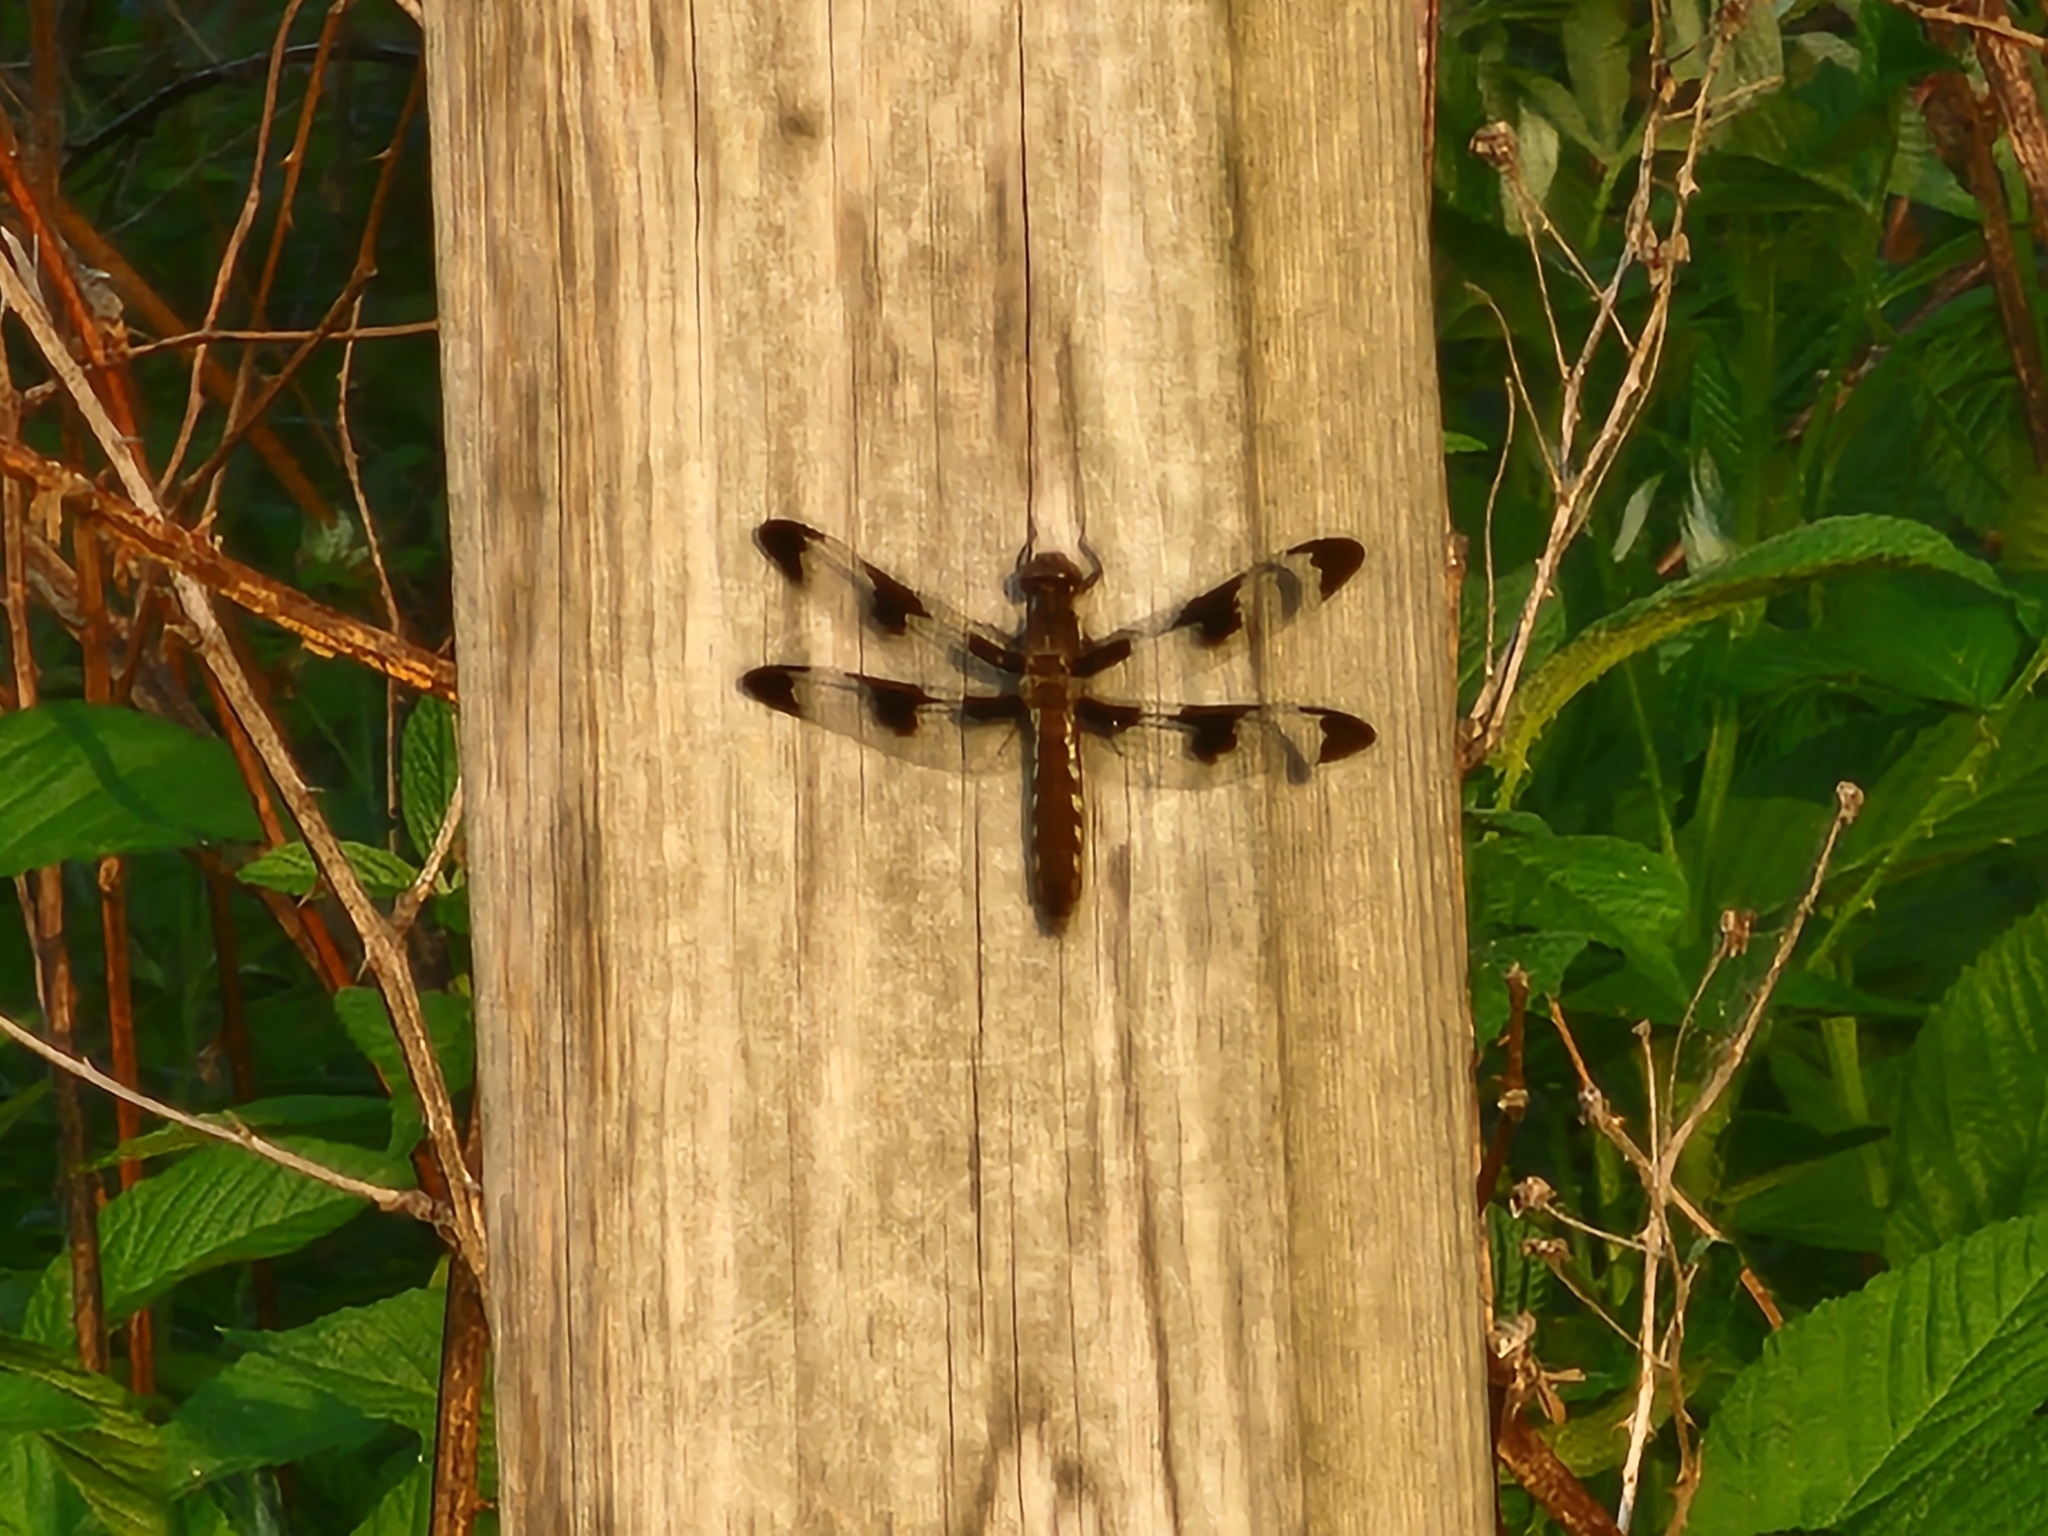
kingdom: Animalia
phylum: Arthropoda
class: Insecta
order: Odonata
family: Libellulidae
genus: Plathemis
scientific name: Plathemis lydia
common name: Common whitetail
